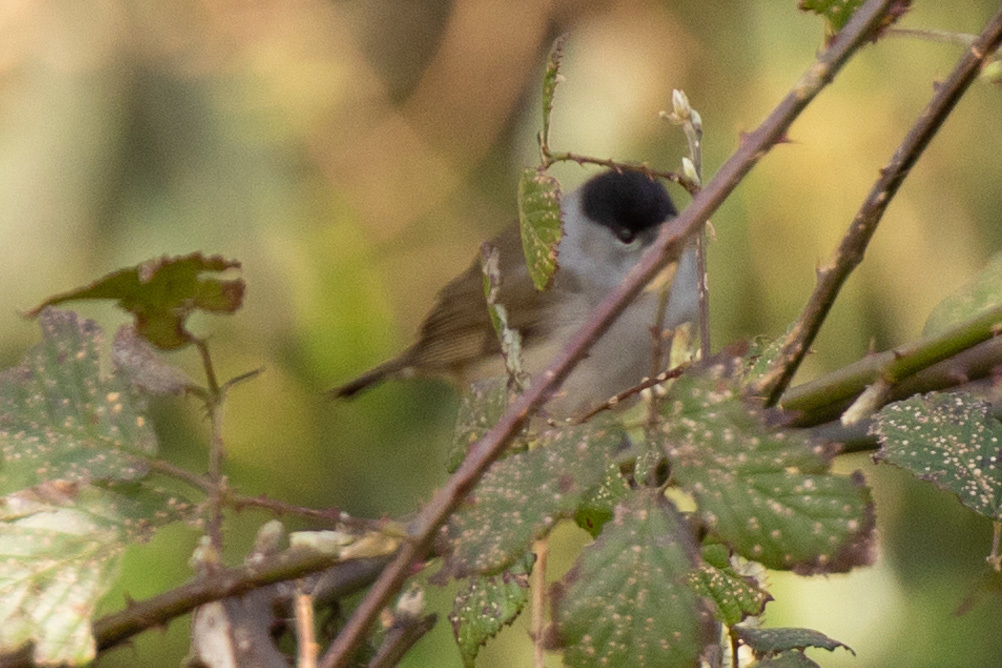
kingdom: Animalia
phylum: Chordata
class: Aves
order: Passeriformes
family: Sylviidae
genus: Sylvia
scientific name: Sylvia atricapilla
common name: Eurasian blackcap
